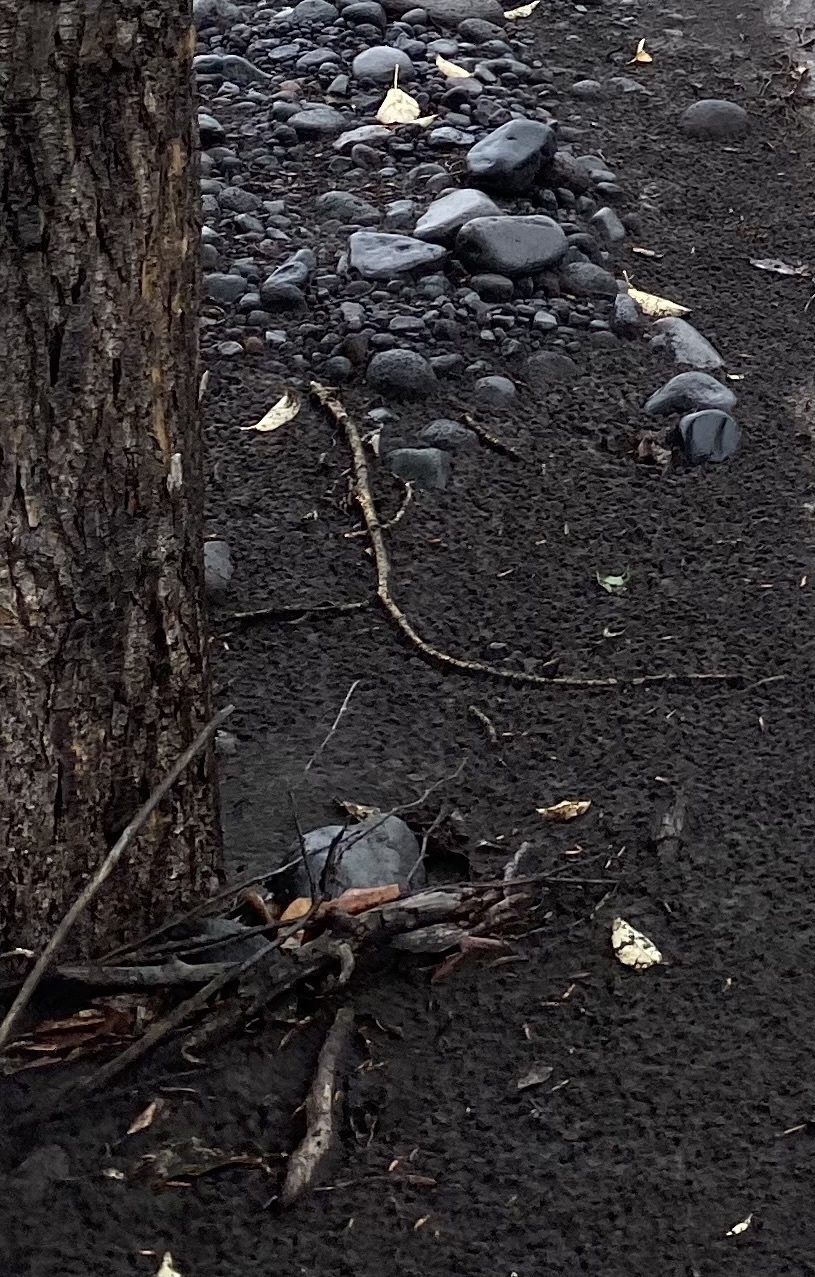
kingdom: Plantae
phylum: Tracheophyta
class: Magnoliopsida
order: Malpighiales
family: Salicaceae
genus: Populus
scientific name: Populus suaveolens
